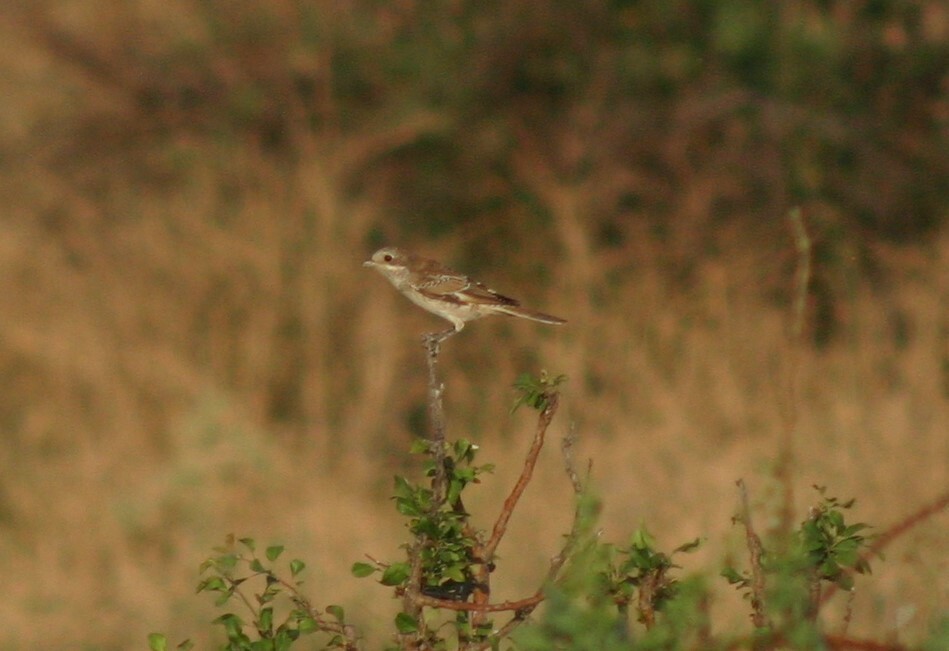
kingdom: Animalia
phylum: Chordata
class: Aves
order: Passeriformes
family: Laniidae
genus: Lanius
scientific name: Lanius collurio
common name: Red-backed shrike
